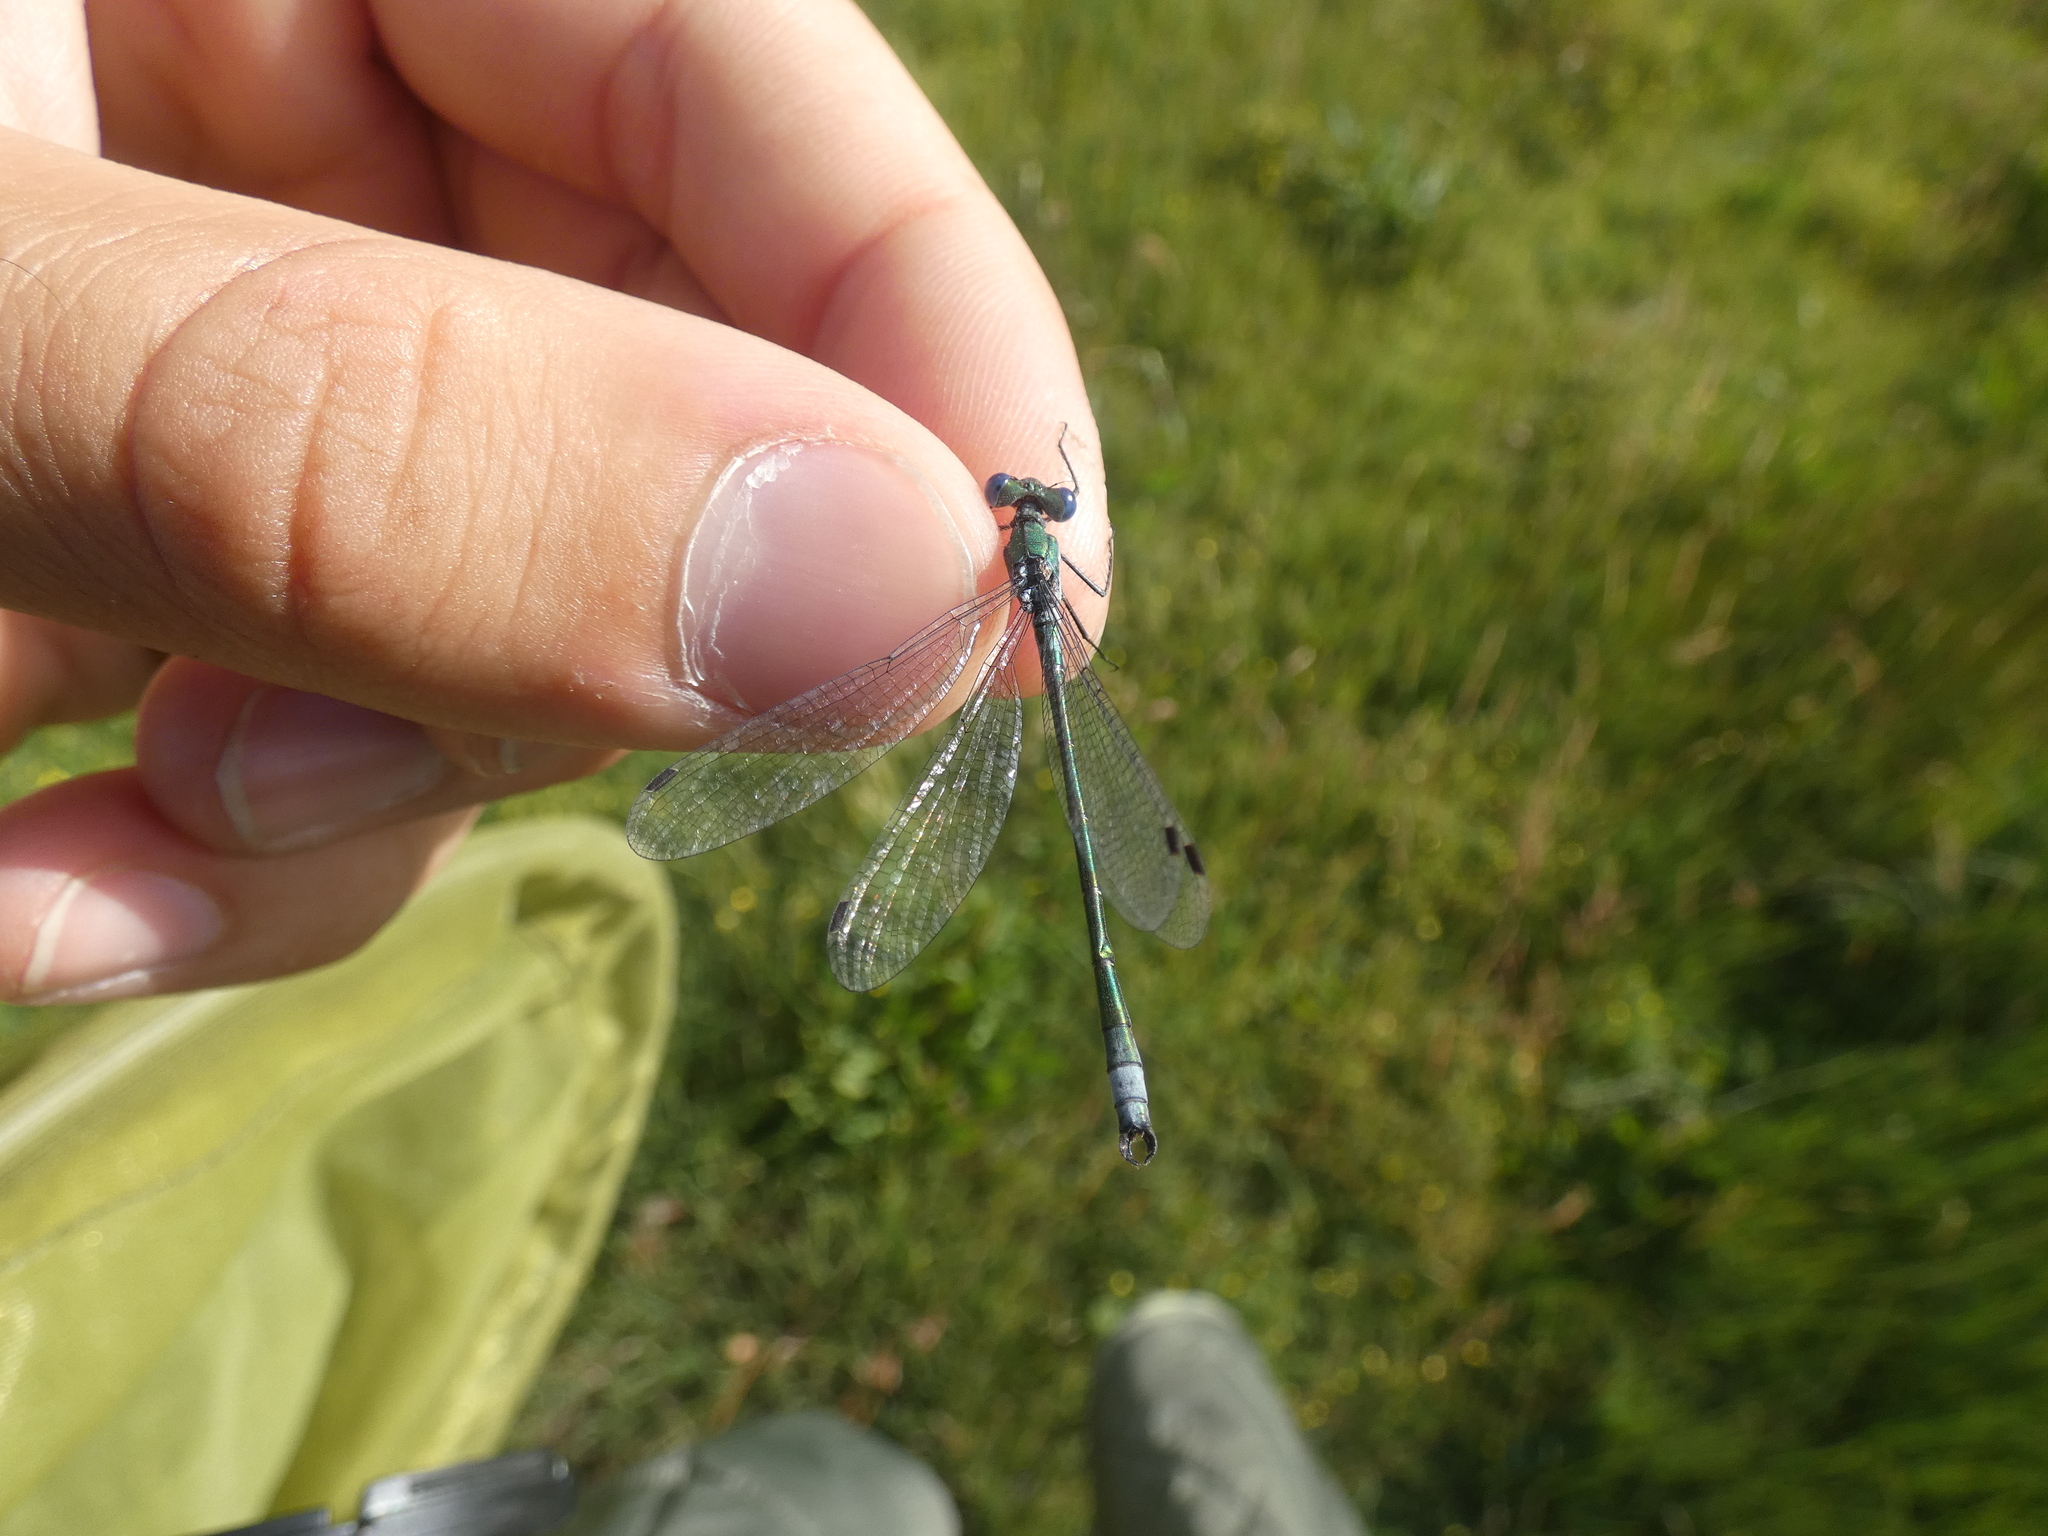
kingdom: Animalia
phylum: Arthropoda
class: Insecta
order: Odonata
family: Lestidae
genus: Lestes
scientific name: Lestes dryas
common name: Scarce emerald damselfly
